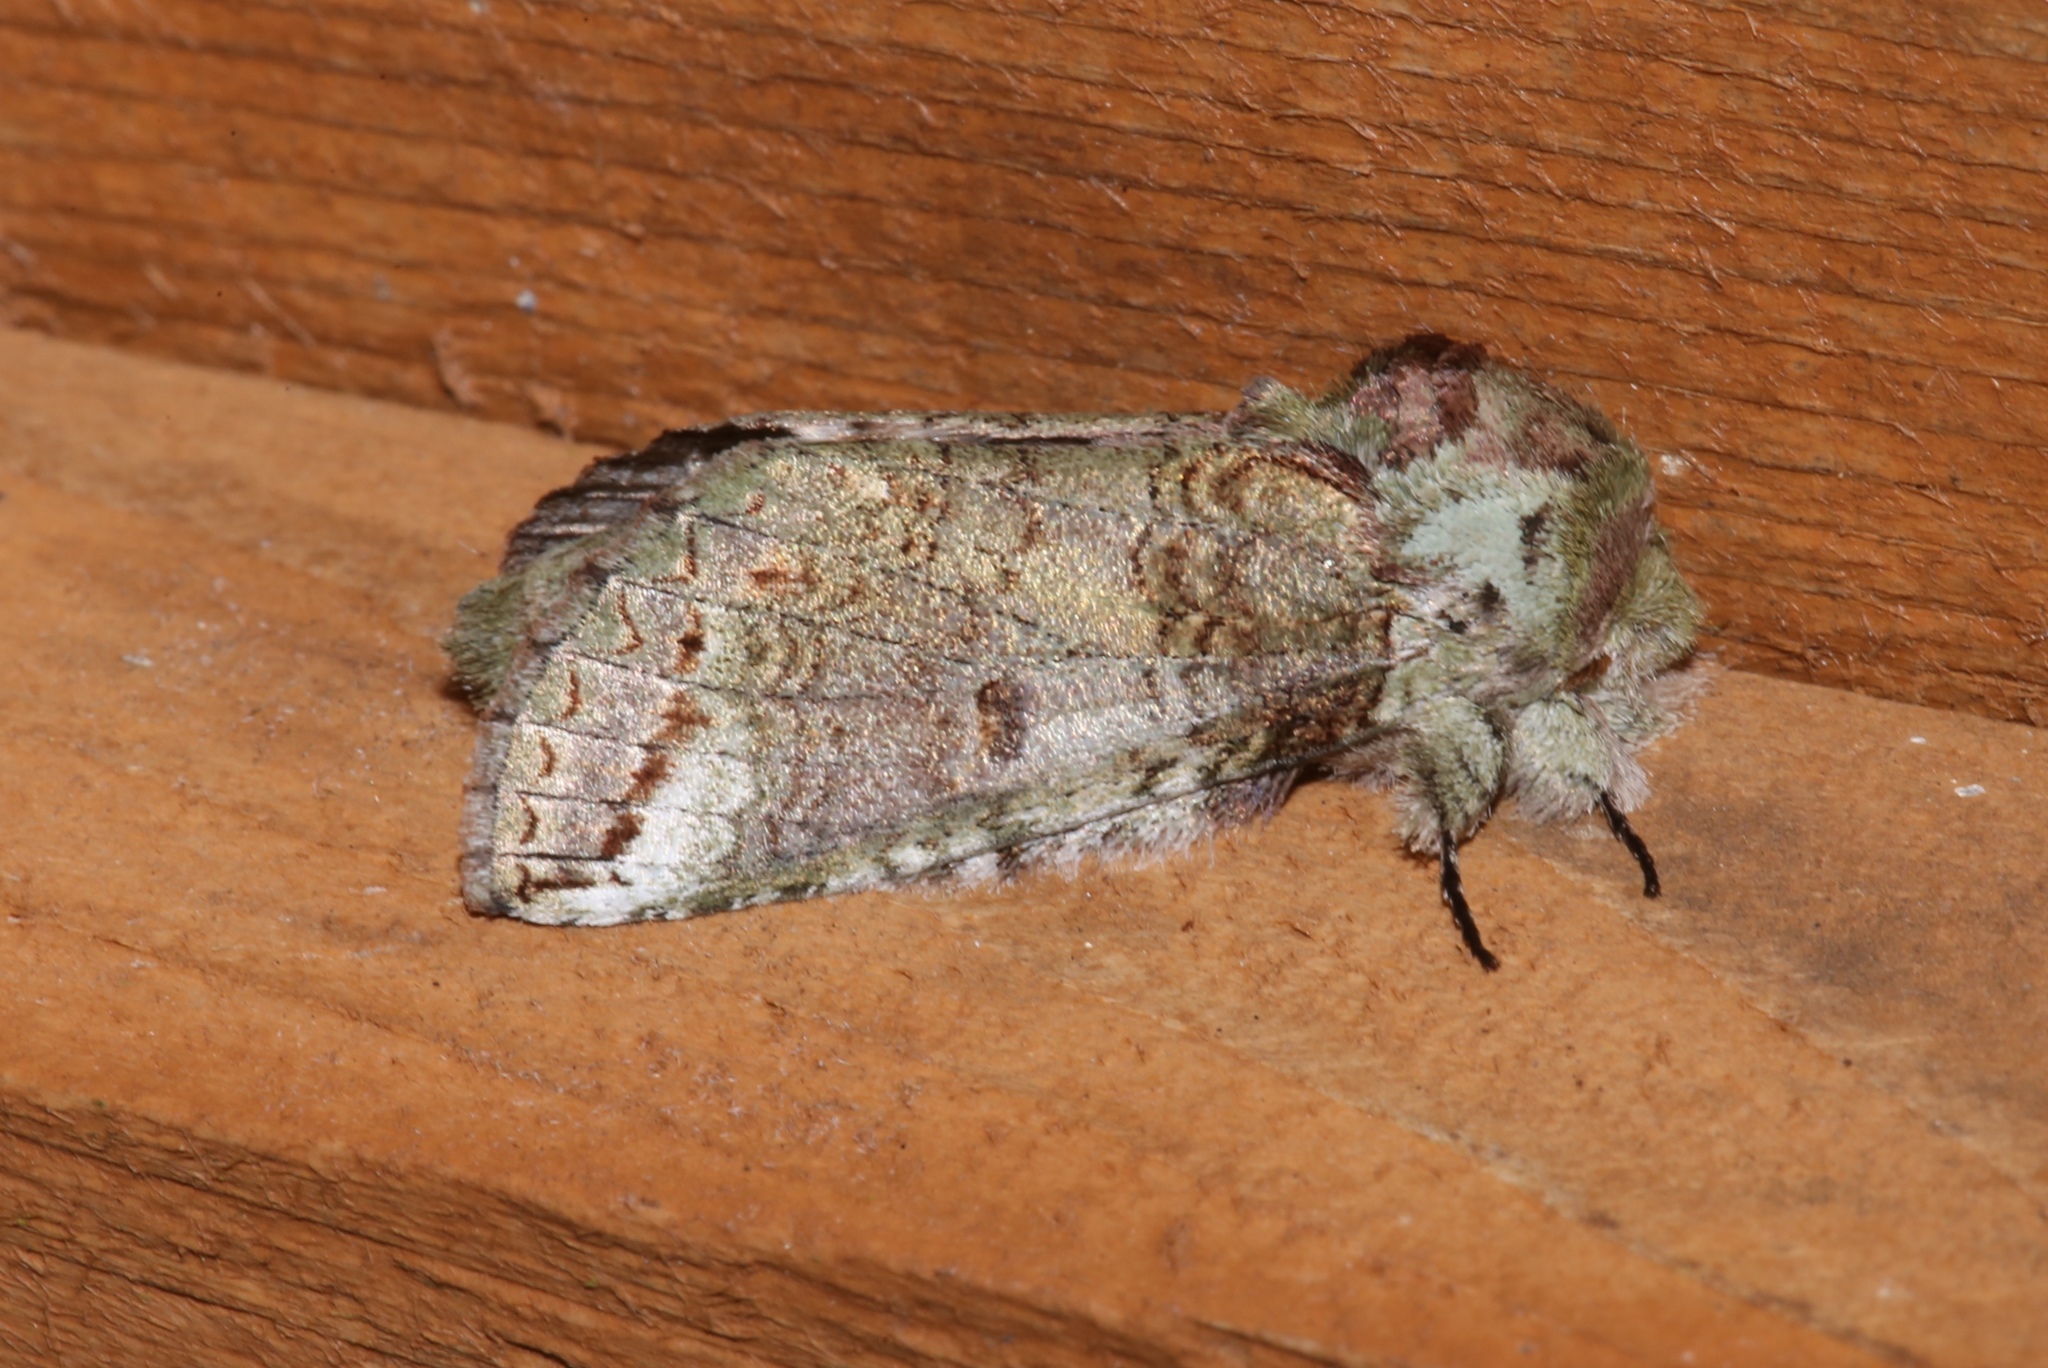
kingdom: Animalia
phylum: Arthropoda
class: Insecta
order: Lepidoptera
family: Notodontidae
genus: Heterocampa
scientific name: Heterocampa astarte
